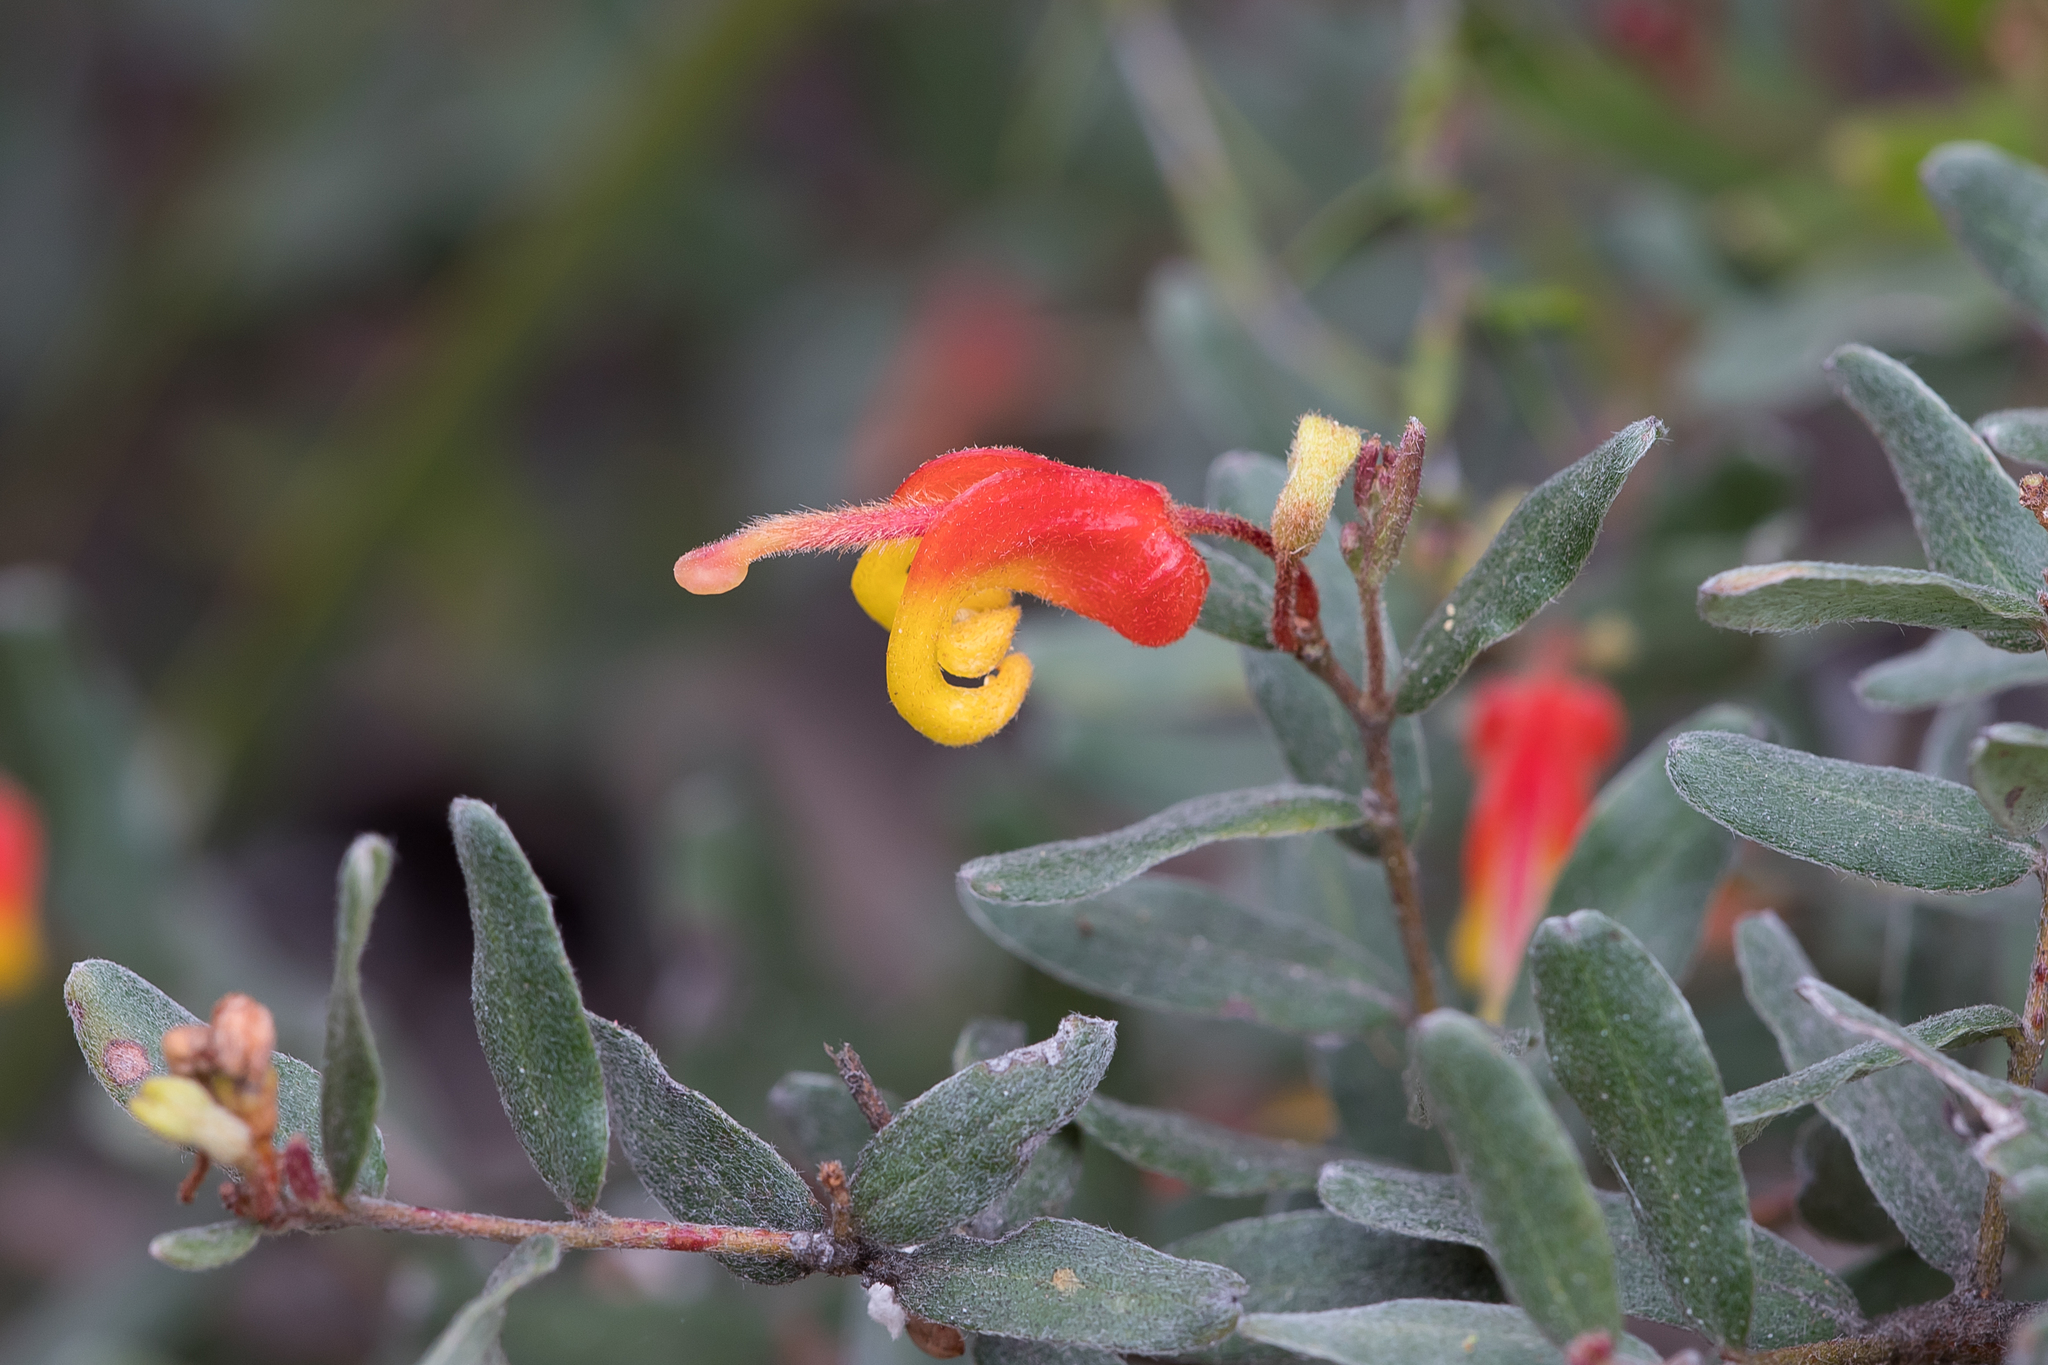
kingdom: Plantae
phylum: Tracheophyta
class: Magnoliopsida
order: Proteales
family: Proteaceae
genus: Grevillea
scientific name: Grevillea alpina
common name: Catclaws grevillea
